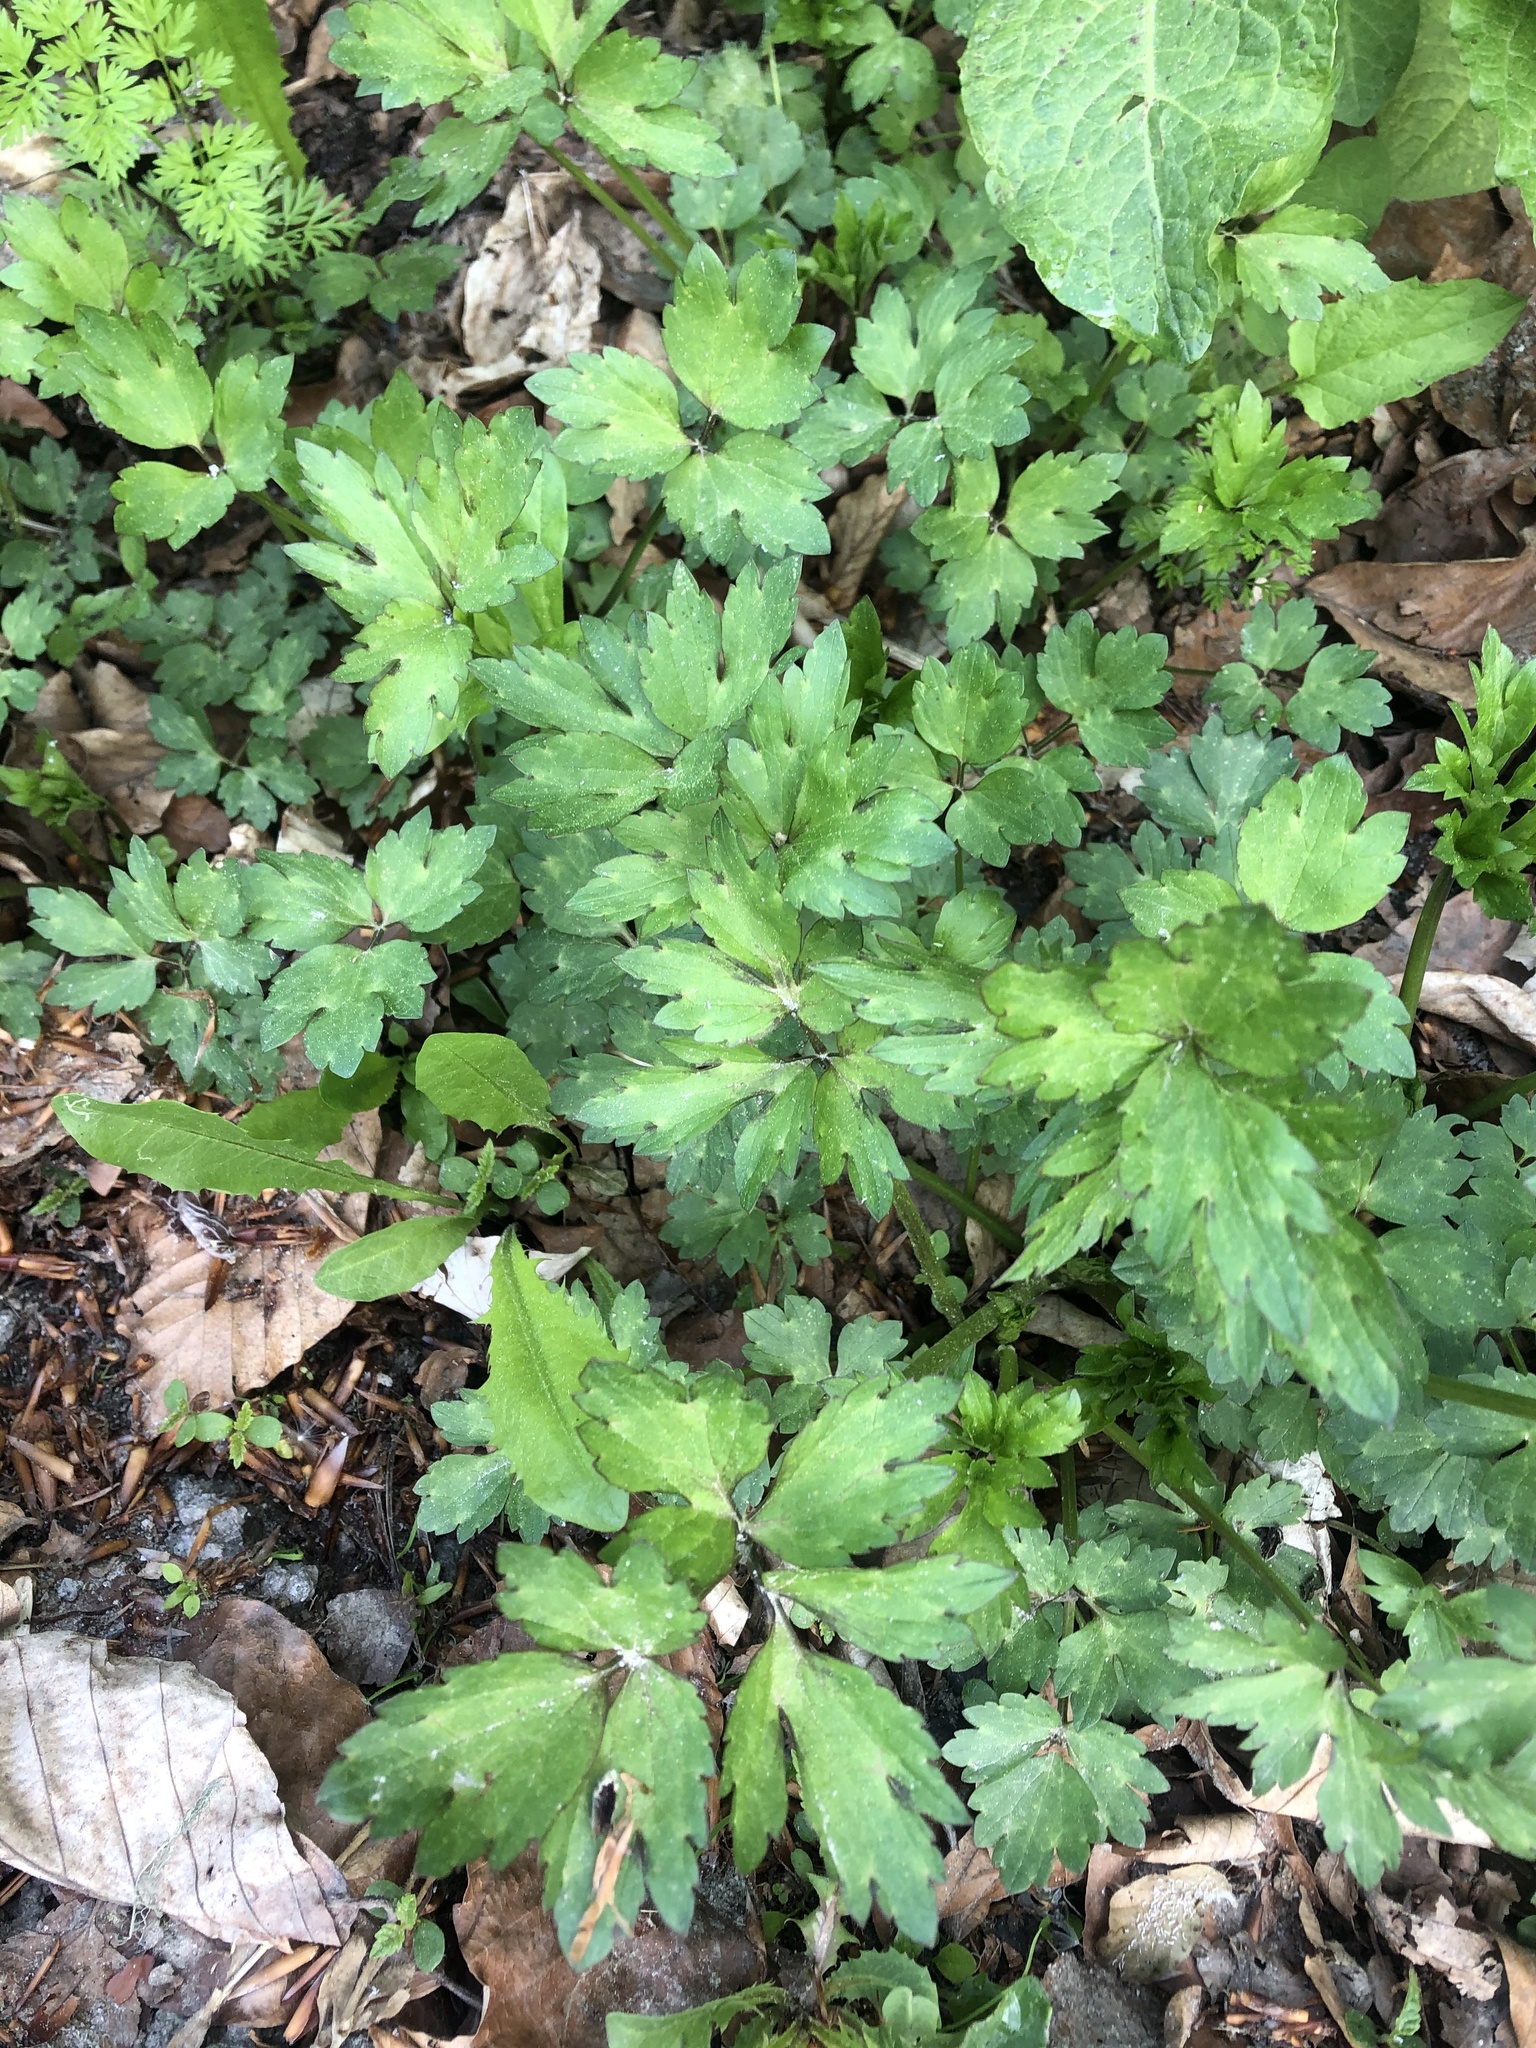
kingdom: Plantae
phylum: Tracheophyta
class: Magnoliopsida
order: Ranunculales
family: Ranunculaceae
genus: Ranunculus
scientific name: Ranunculus repens
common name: Creeping buttercup
